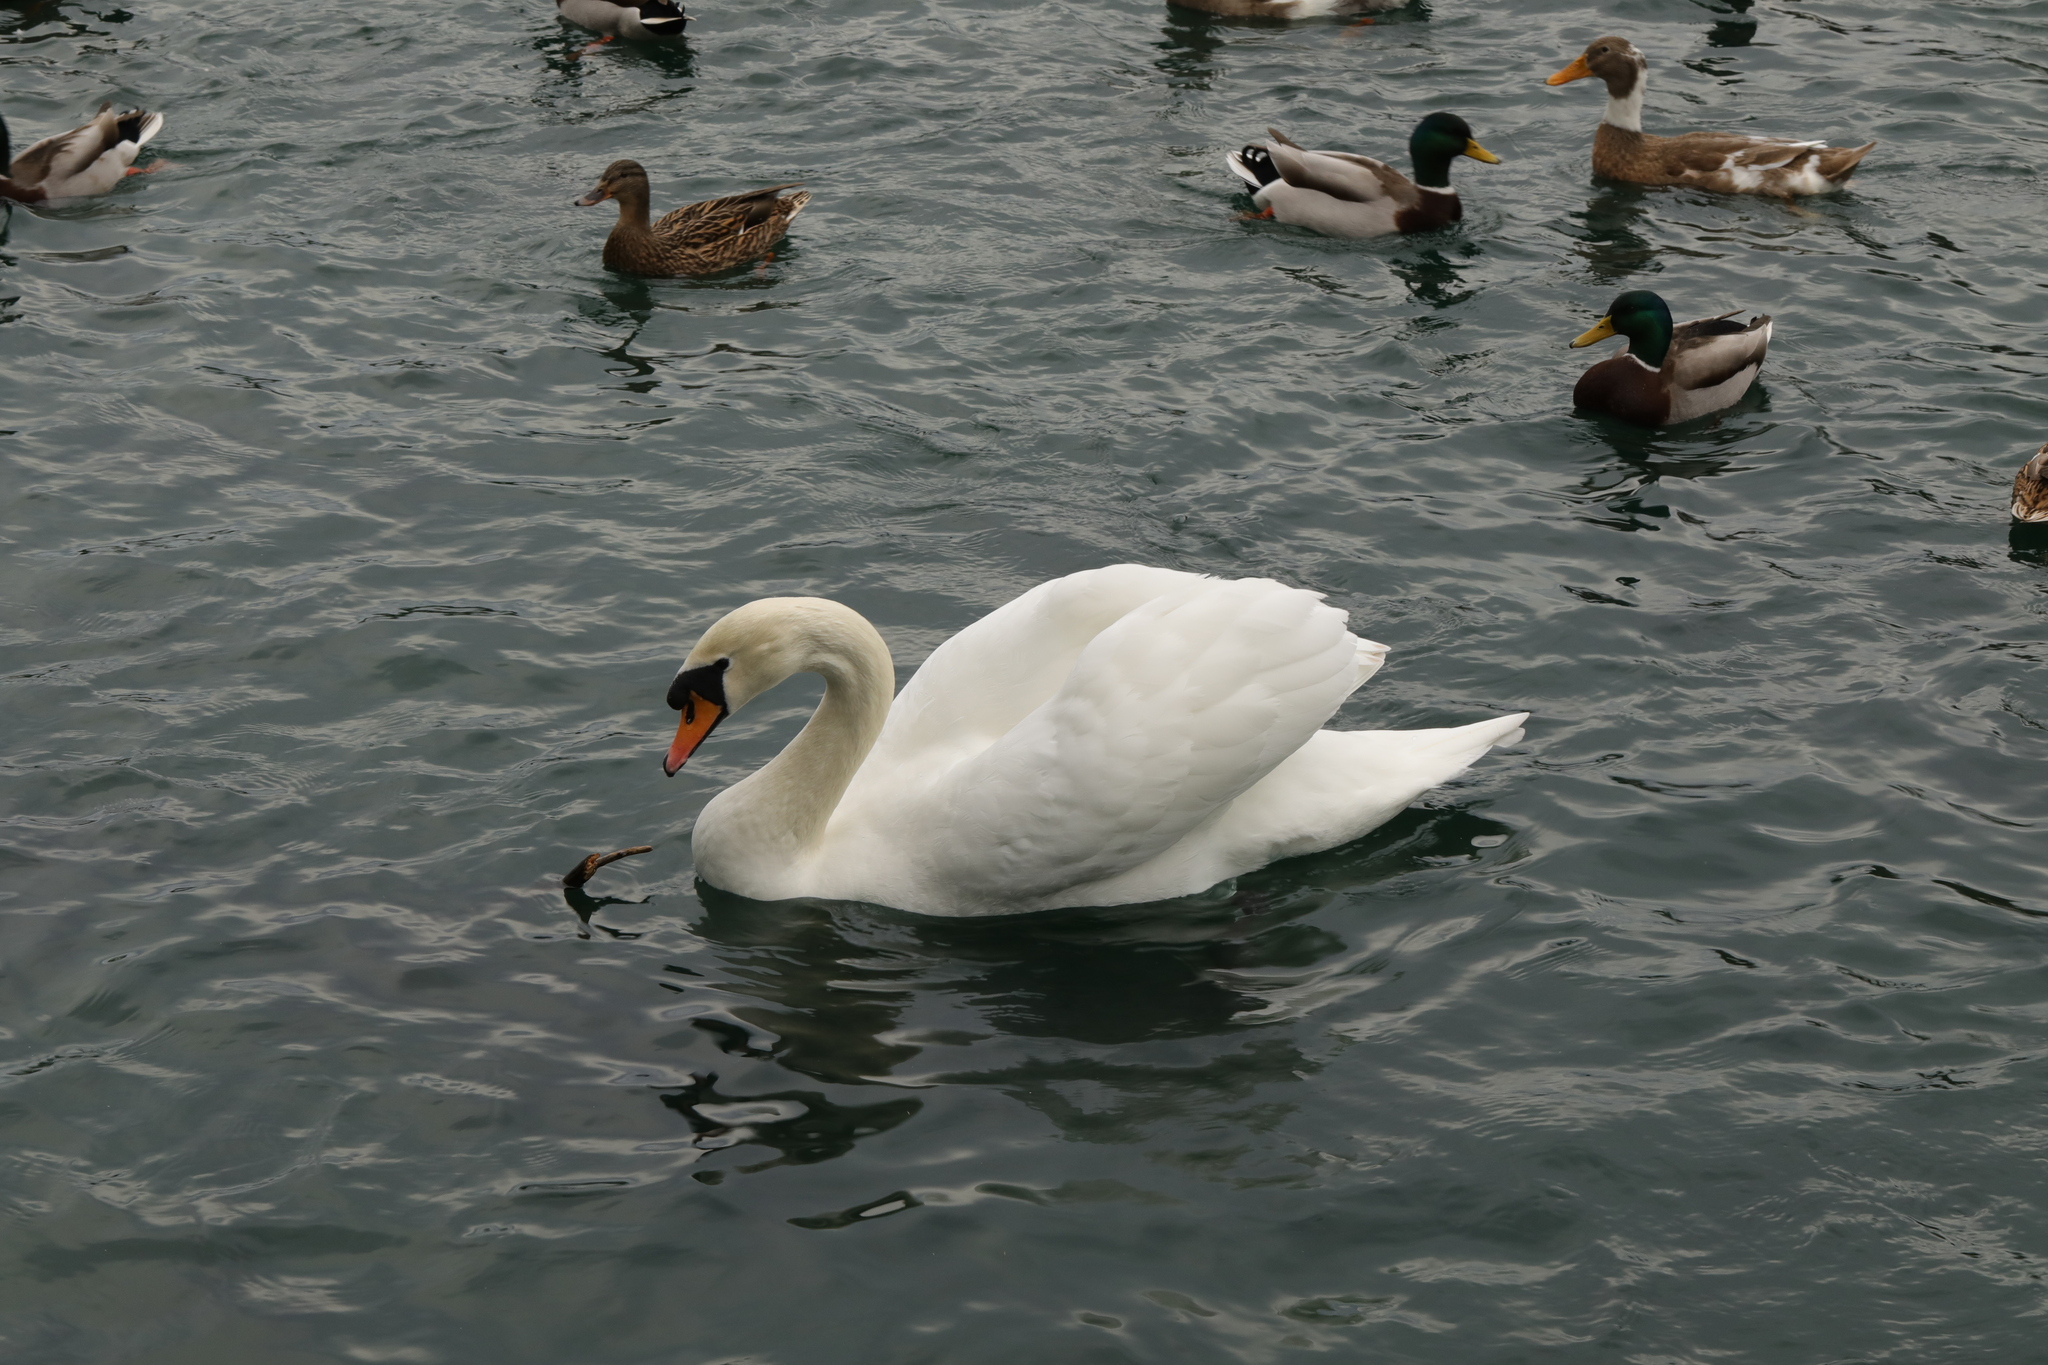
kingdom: Animalia
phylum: Chordata
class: Aves
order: Anseriformes
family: Anatidae
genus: Cygnus
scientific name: Cygnus olor
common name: Mute swan
